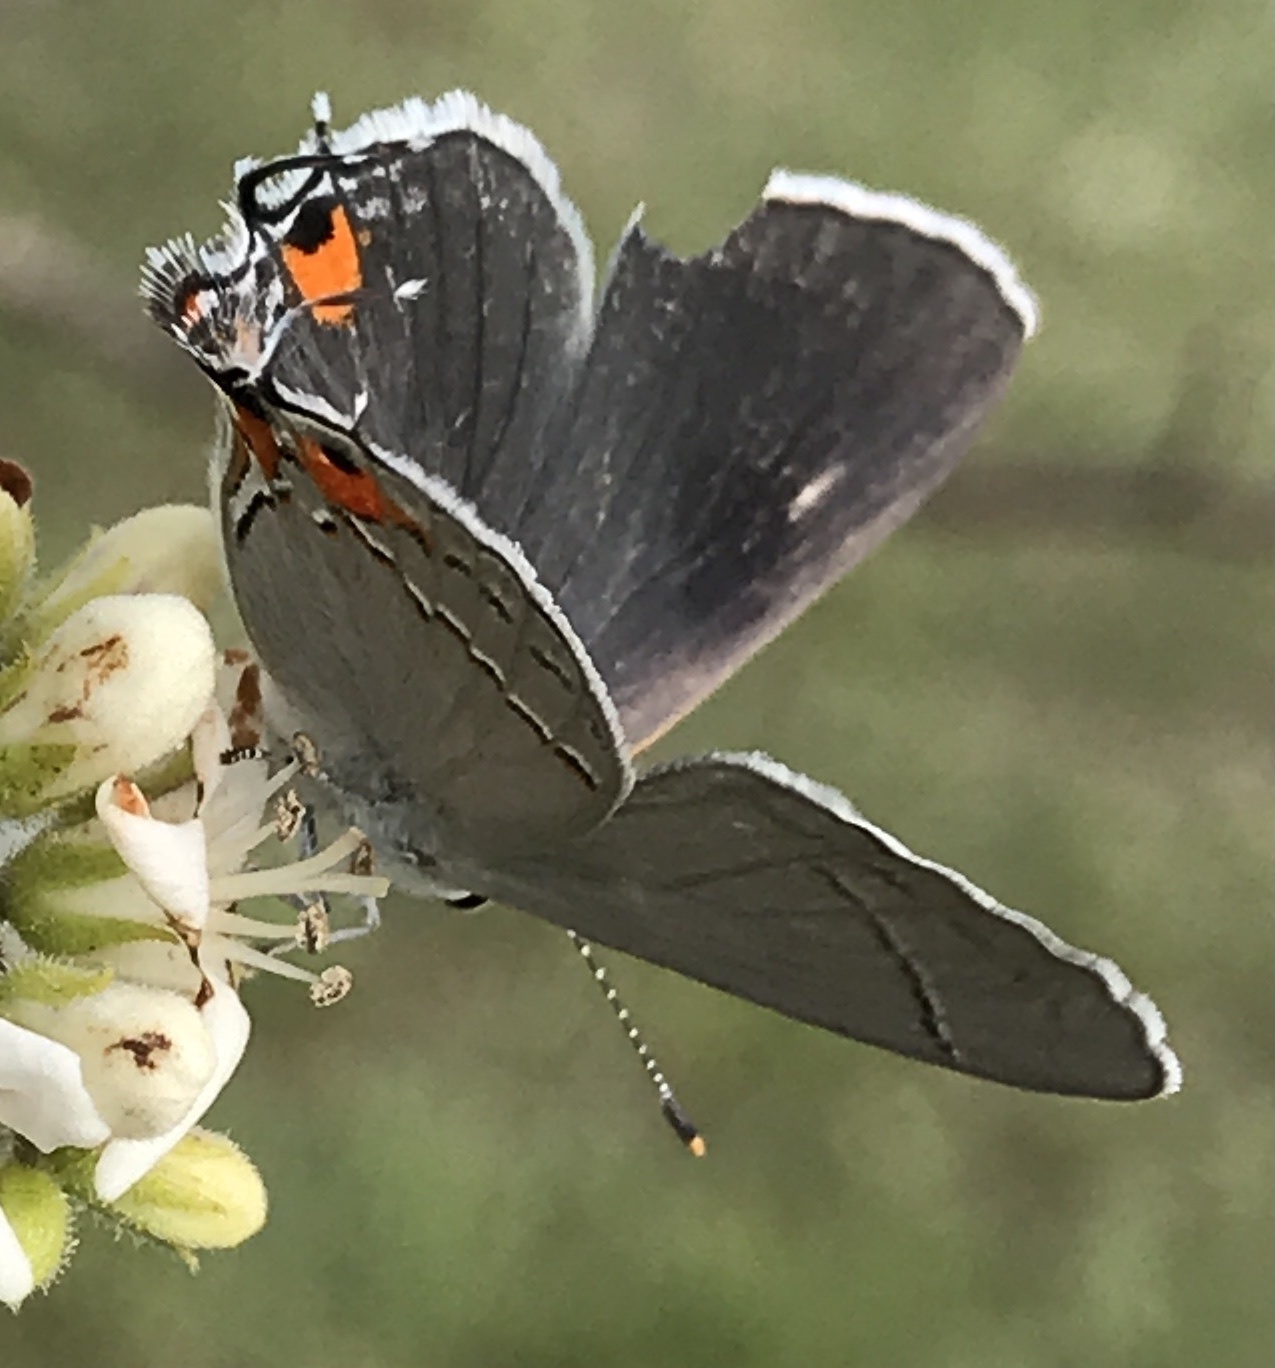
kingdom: Animalia
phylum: Arthropoda
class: Insecta
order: Lepidoptera
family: Lycaenidae
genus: Strymon
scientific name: Strymon melinus
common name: Gray hairstreak
